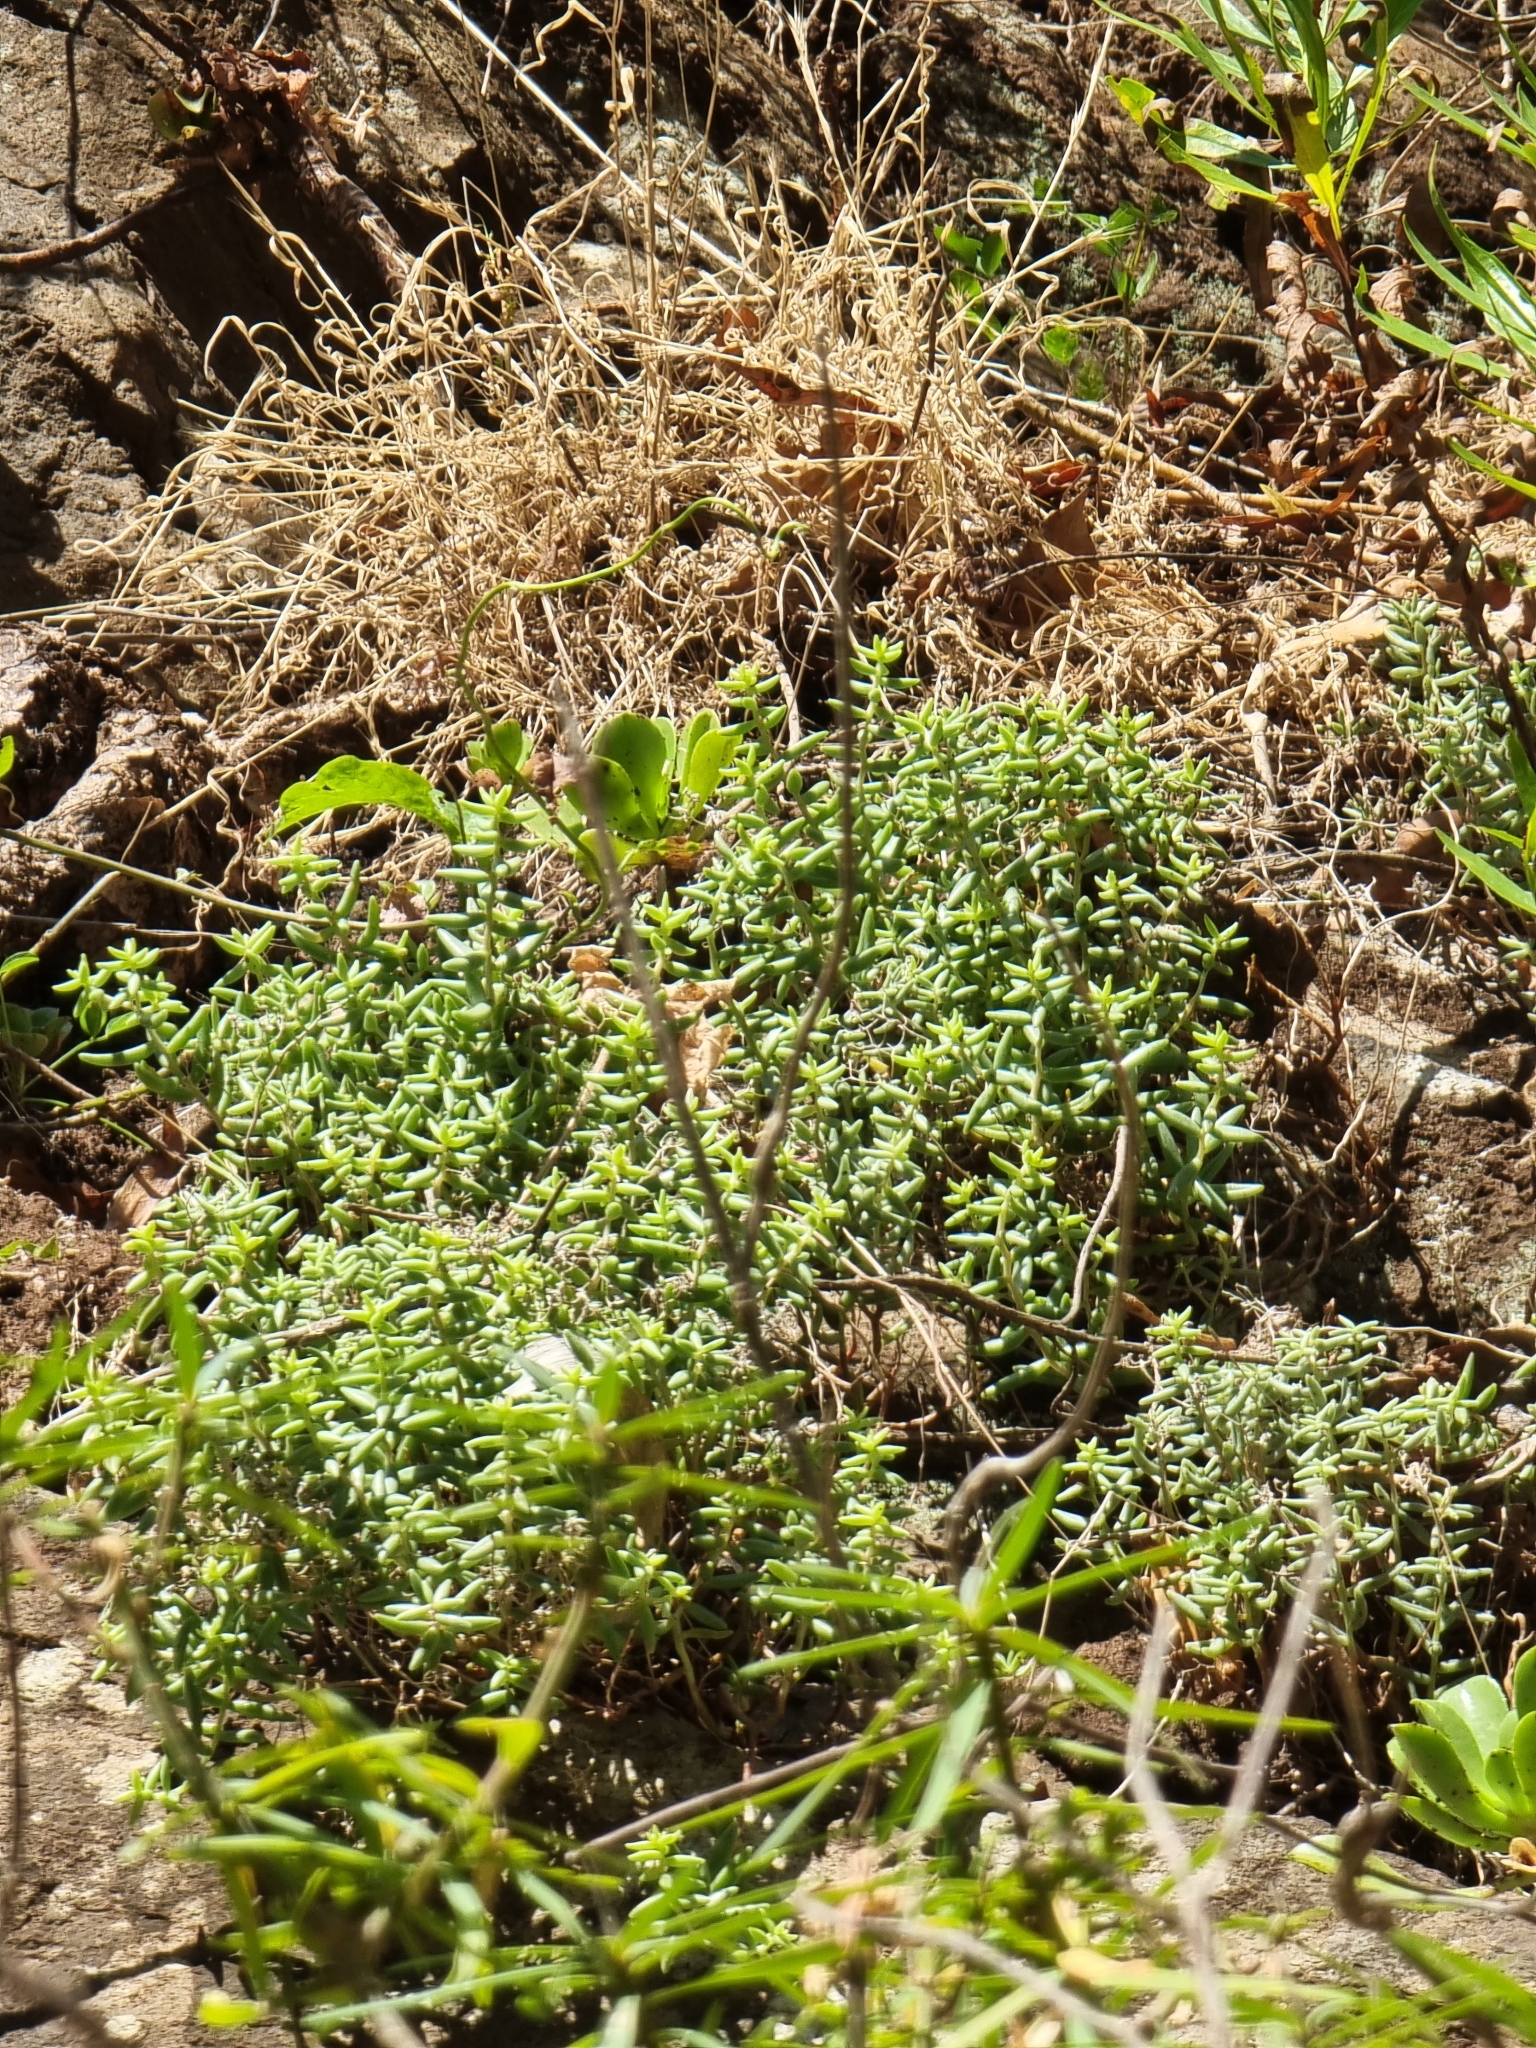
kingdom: Plantae
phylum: Tracheophyta
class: Magnoliopsida
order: Saxifragales
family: Crassulaceae
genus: Sedum
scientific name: Sedum fusiforme
